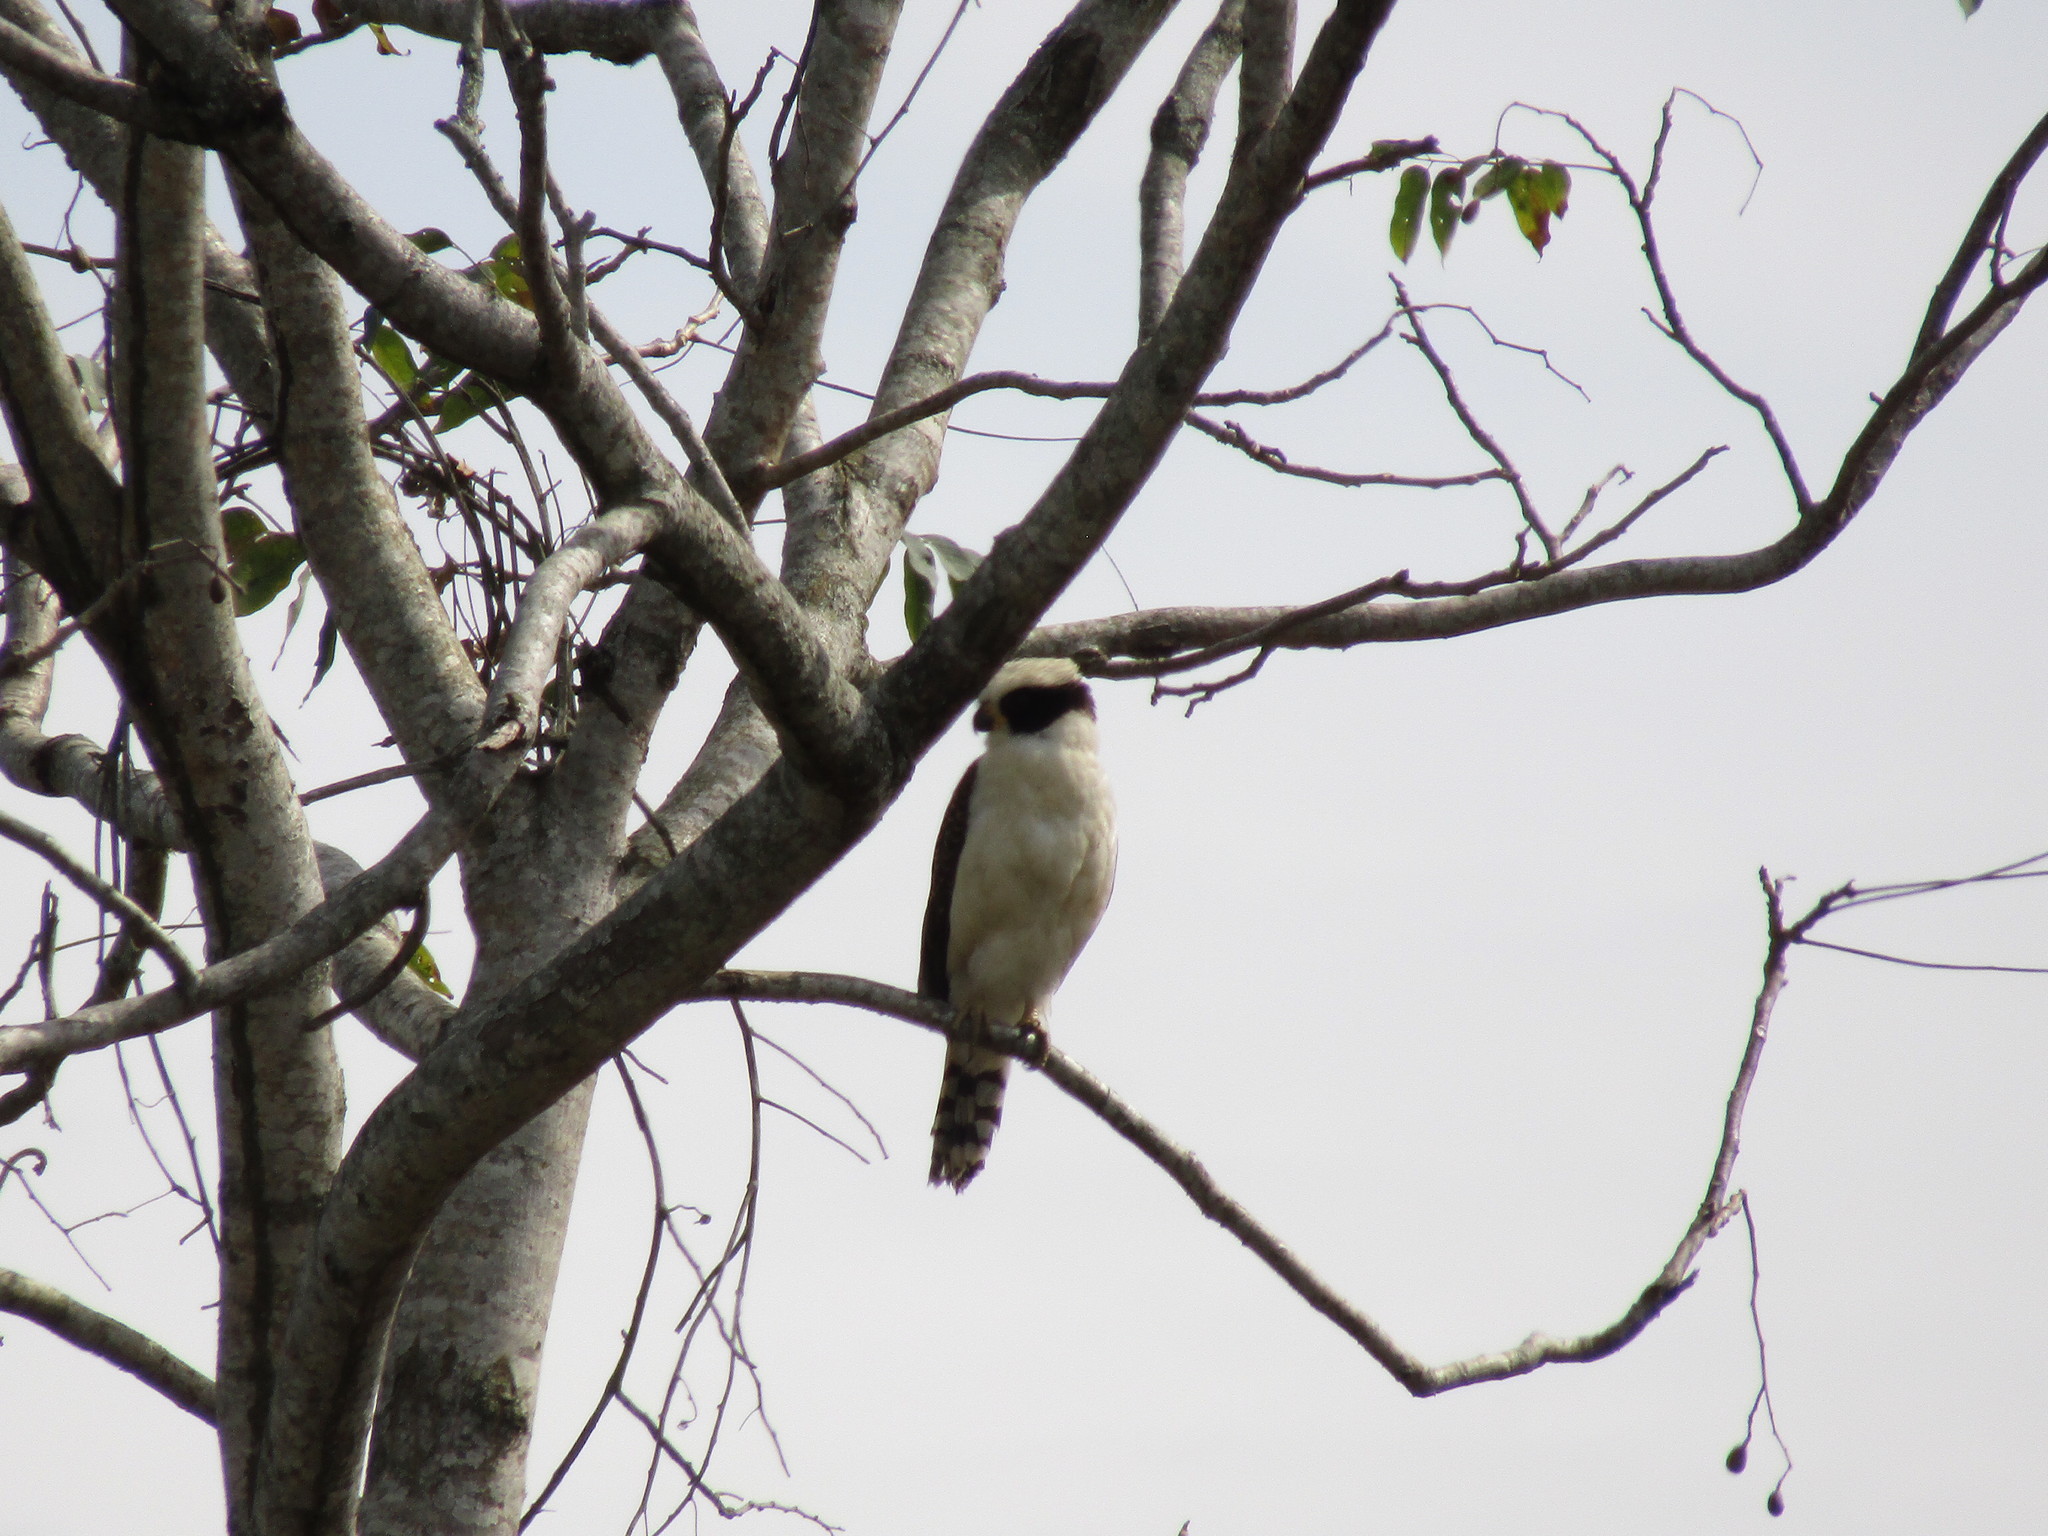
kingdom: Animalia
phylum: Chordata
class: Aves
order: Falconiformes
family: Falconidae
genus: Herpetotheres
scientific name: Herpetotheres cachinnans
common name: Laughing falcon
